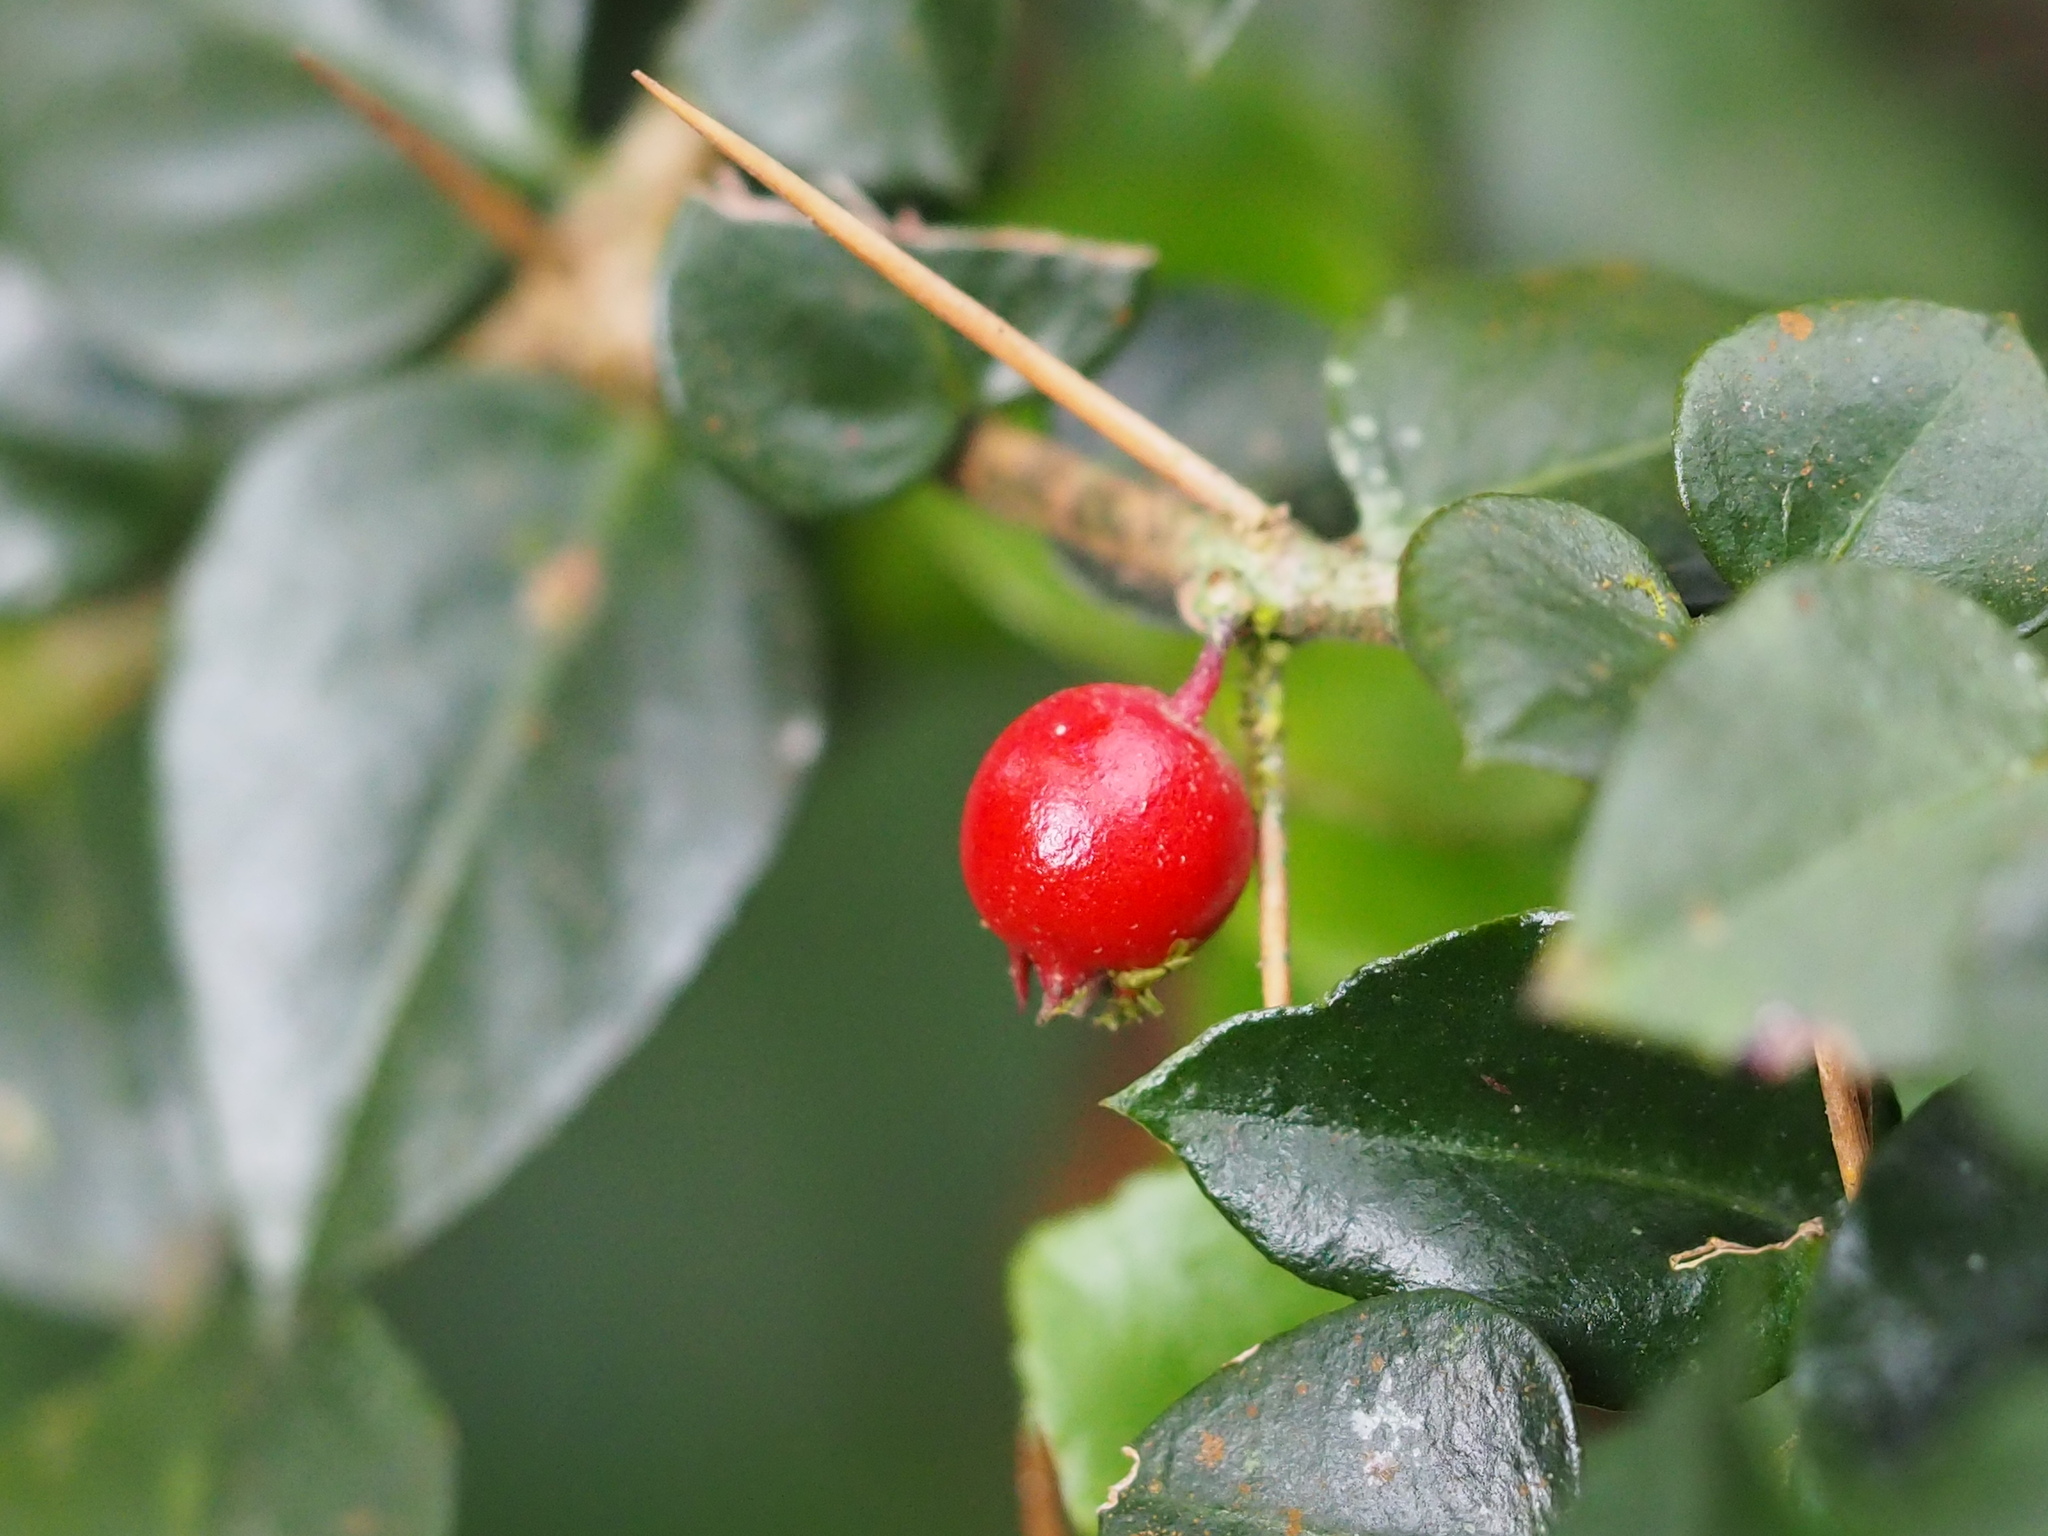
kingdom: Plantae
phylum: Tracheophyta
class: Magnoliopsida
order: Gentianales
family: Rubiaceae
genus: Damnacanthus
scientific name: Damnacanthus indicus
